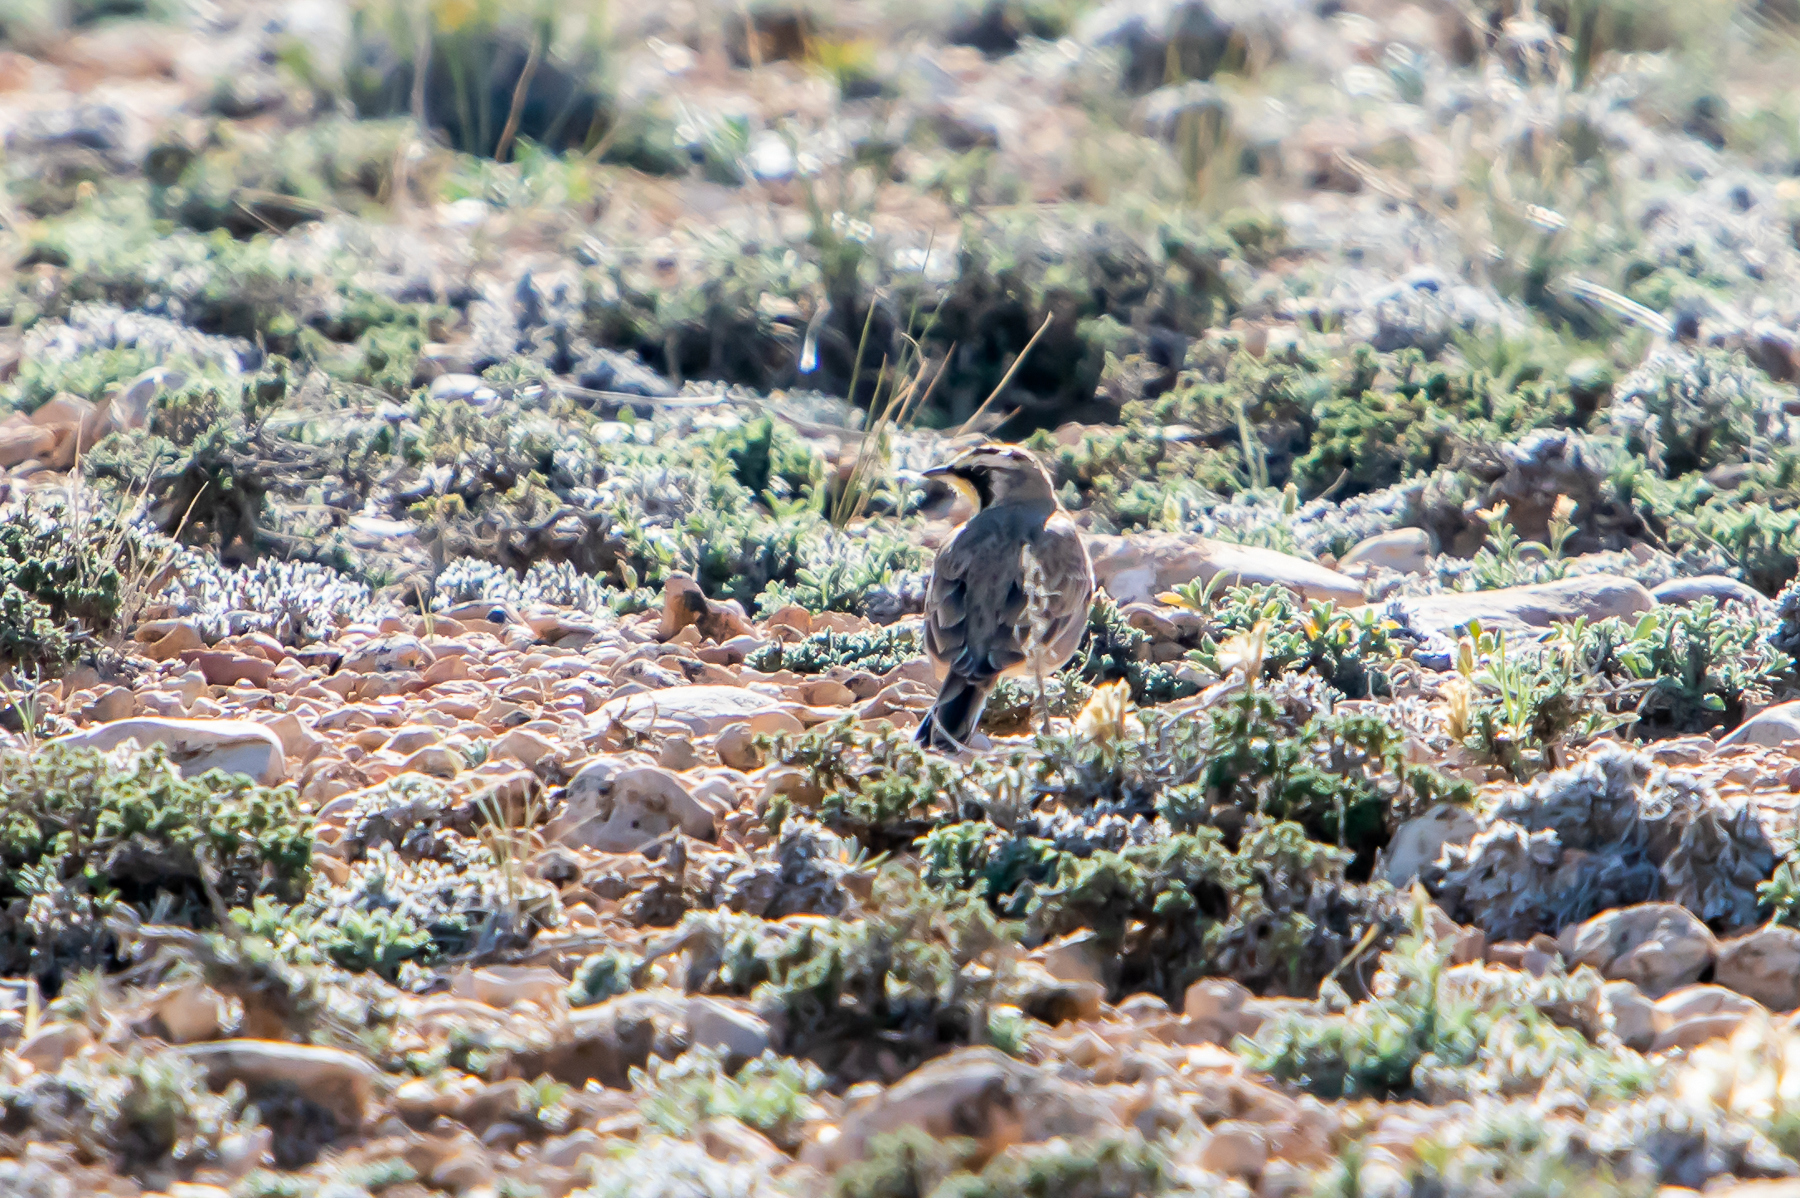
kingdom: Animalia
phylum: Chordata
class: Aves
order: Passeriformes
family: Alaudidae
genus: Eremophila
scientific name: Eremophila alpestris
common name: Horned lark
